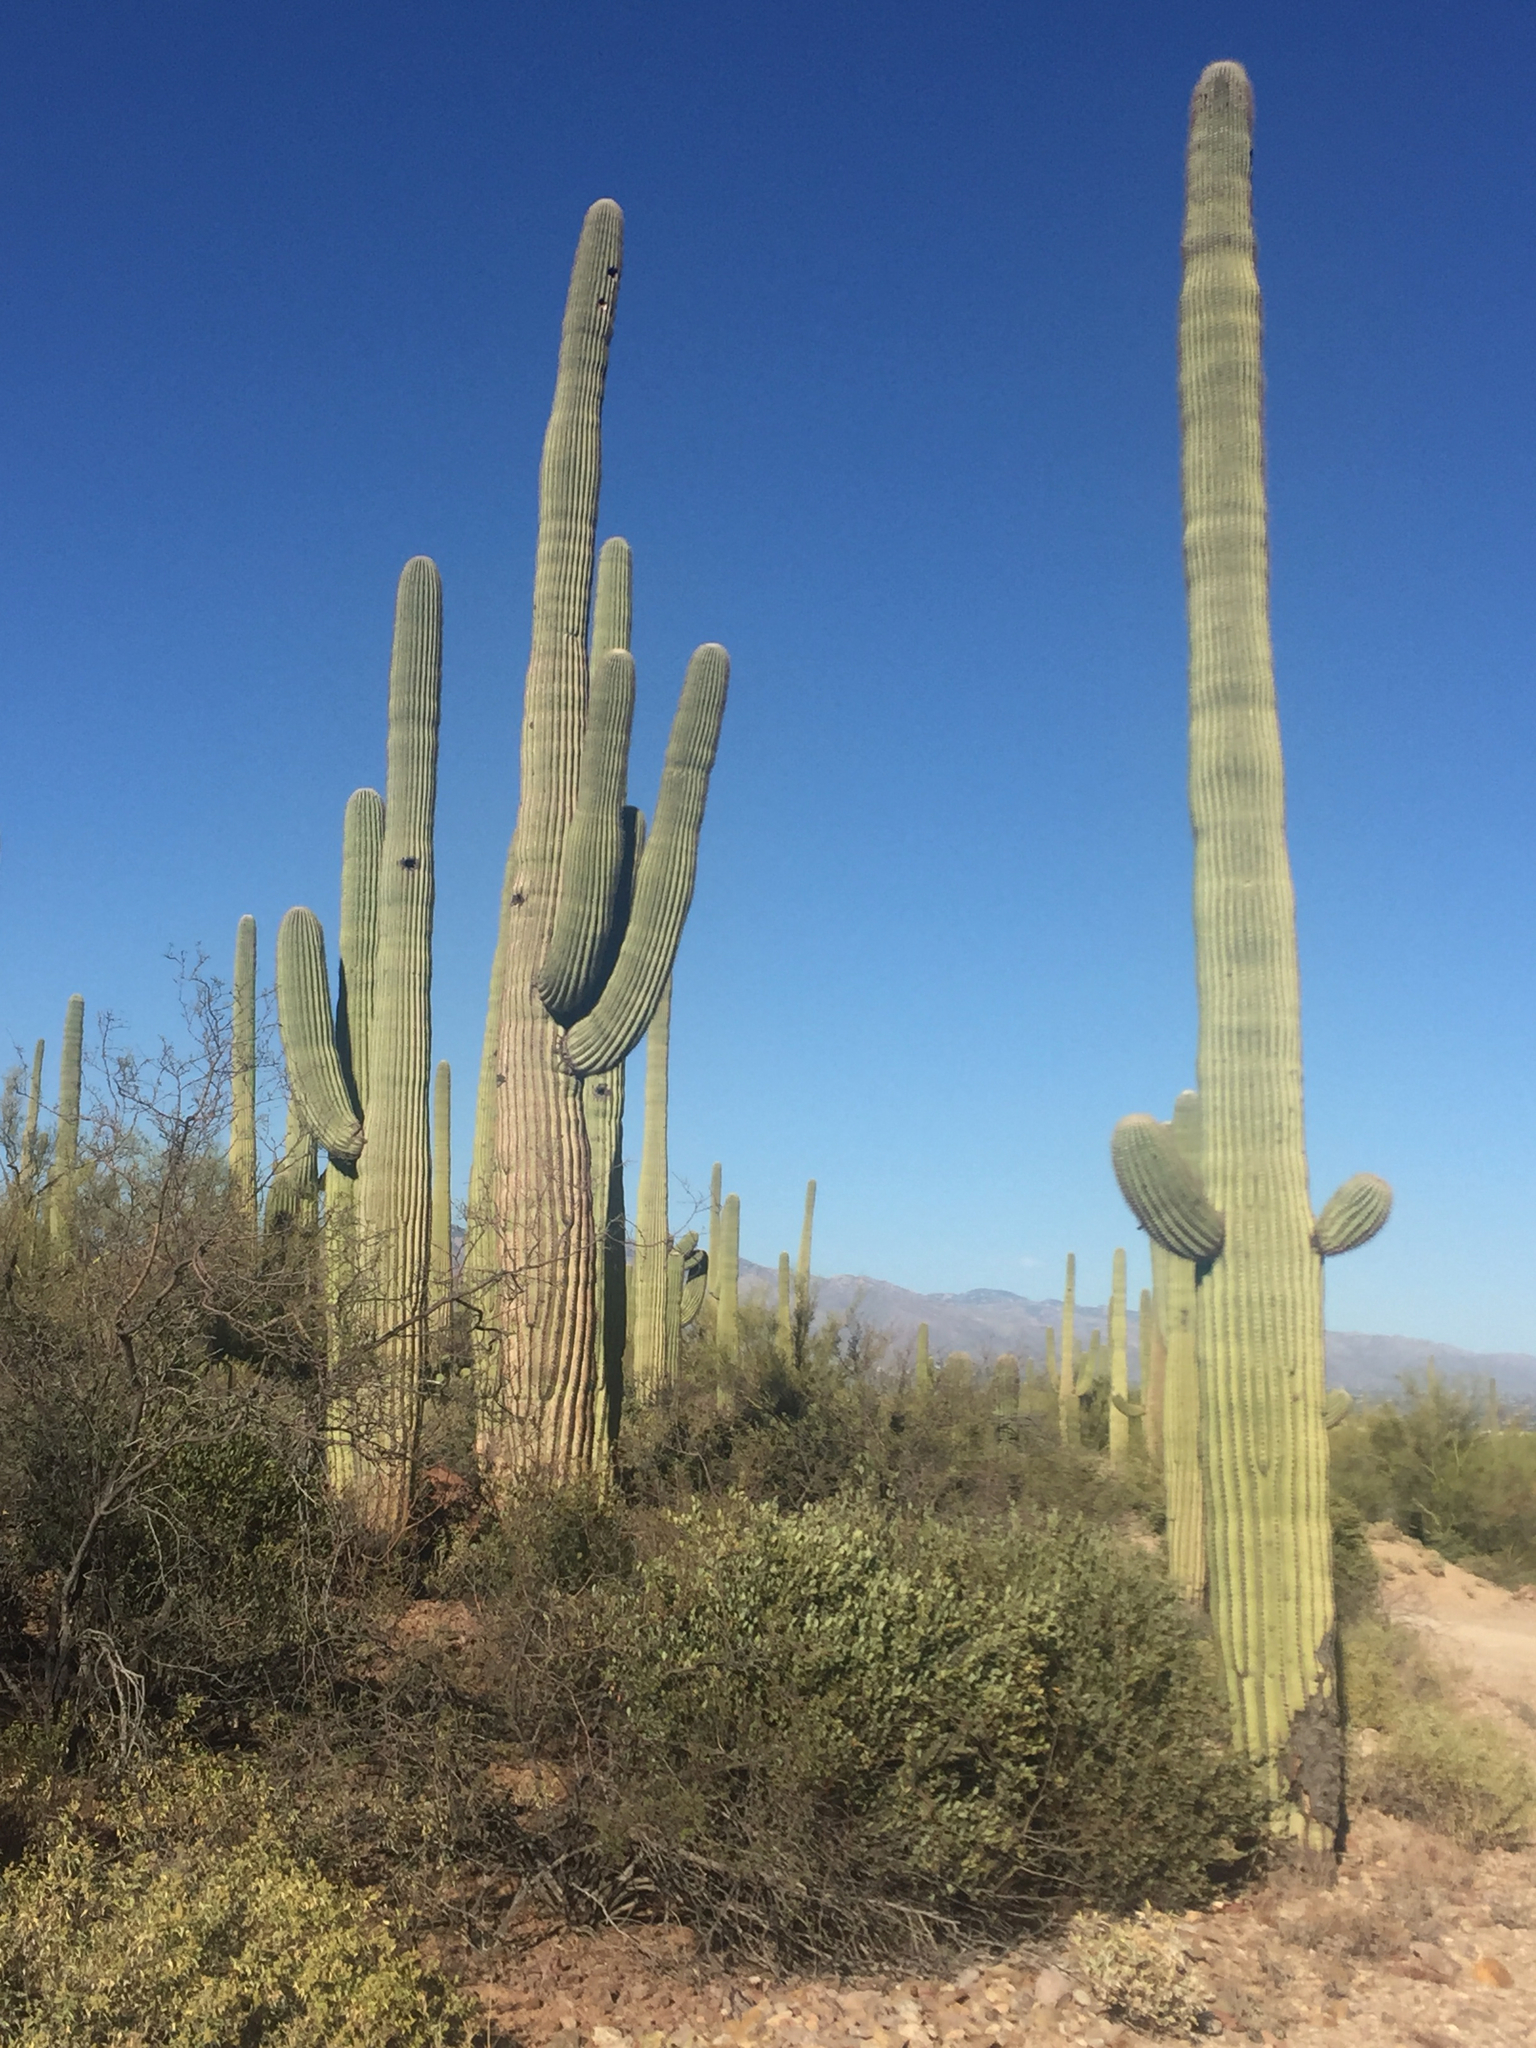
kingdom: Plantae
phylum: Tracheophyta
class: Magnoliopsida
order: Caryophyllales
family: Cactaceae
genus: Carnegiea
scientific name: Carnegiea gigantea
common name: Saguaro
